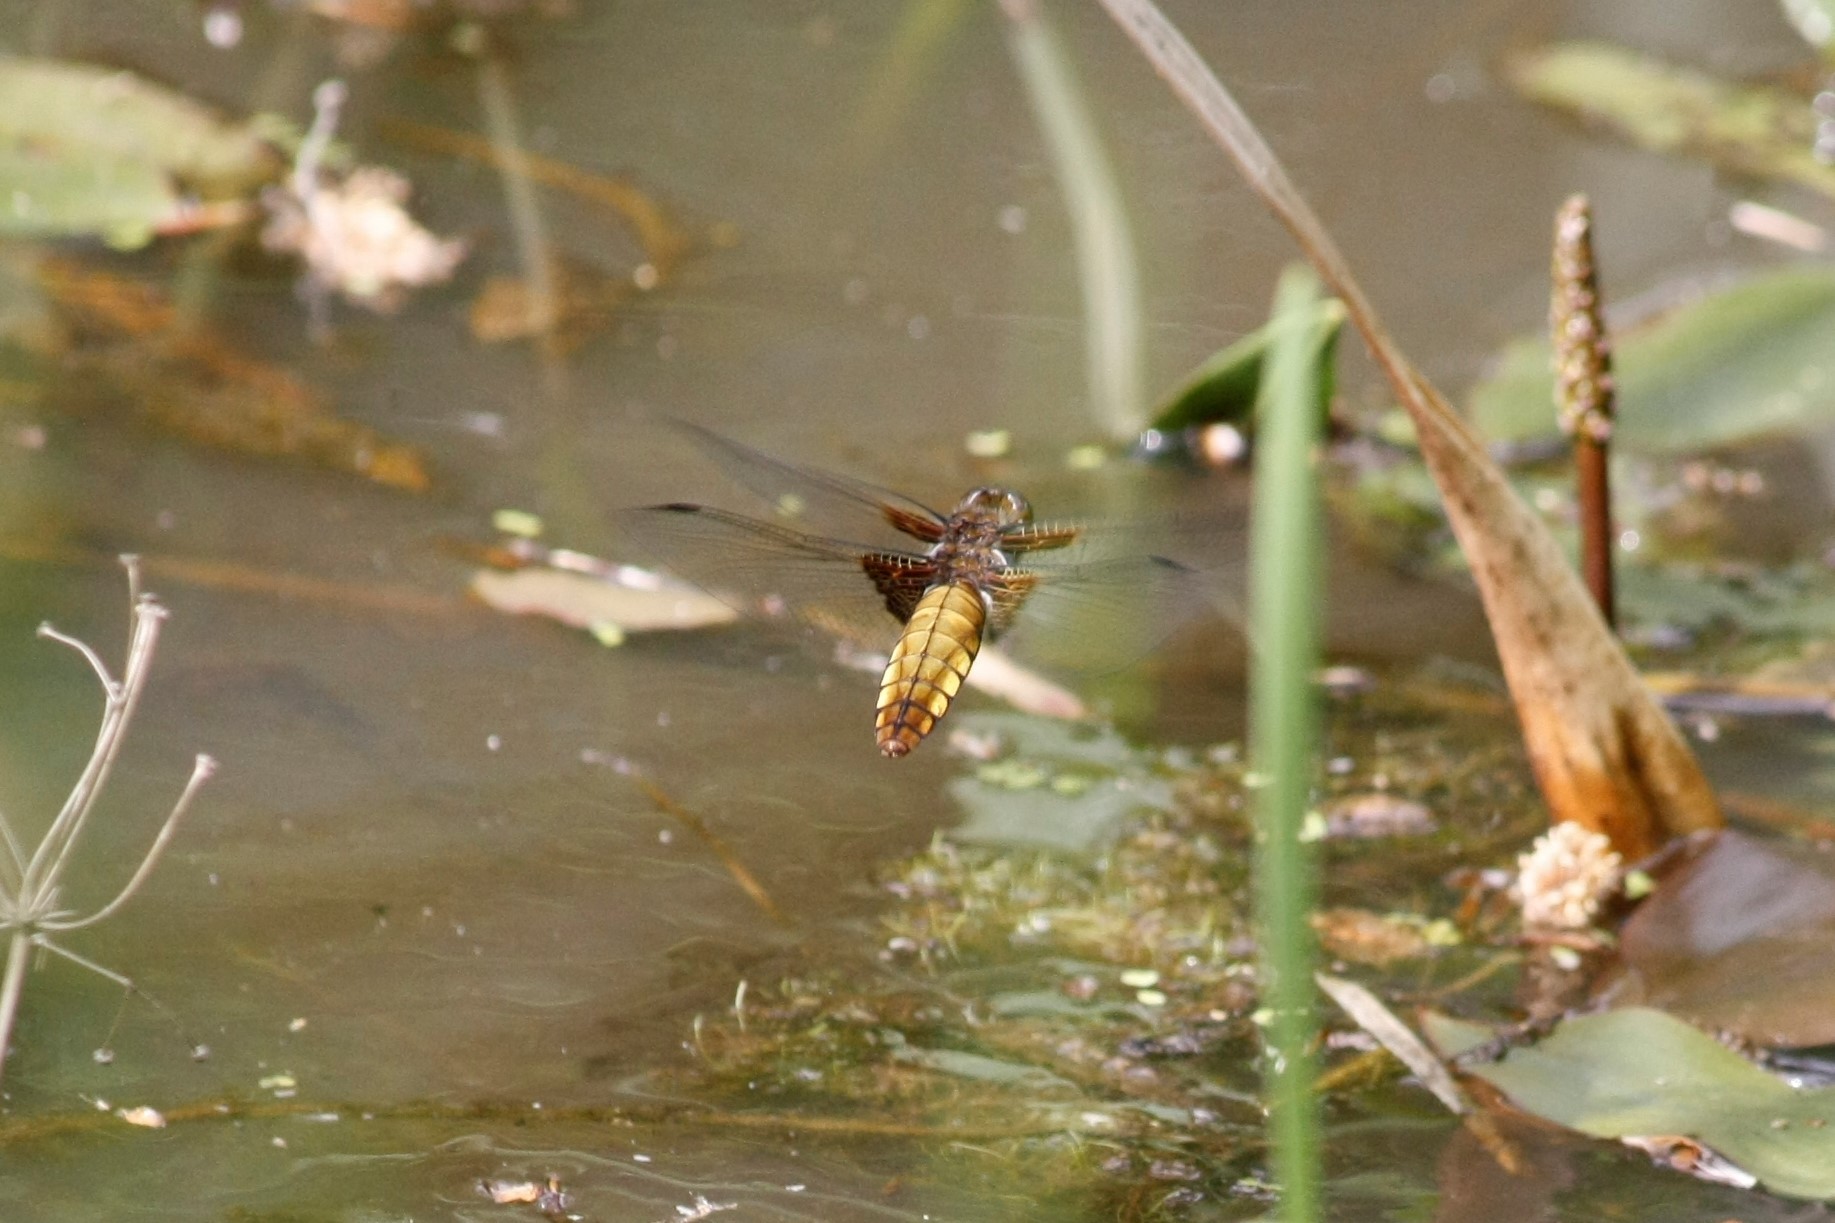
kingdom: Animalia
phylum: Arthropoda
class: Insecta
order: Odonata
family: Libellulidae
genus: Libellula
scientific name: Libellula depressa
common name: Broad-bodied chaser
